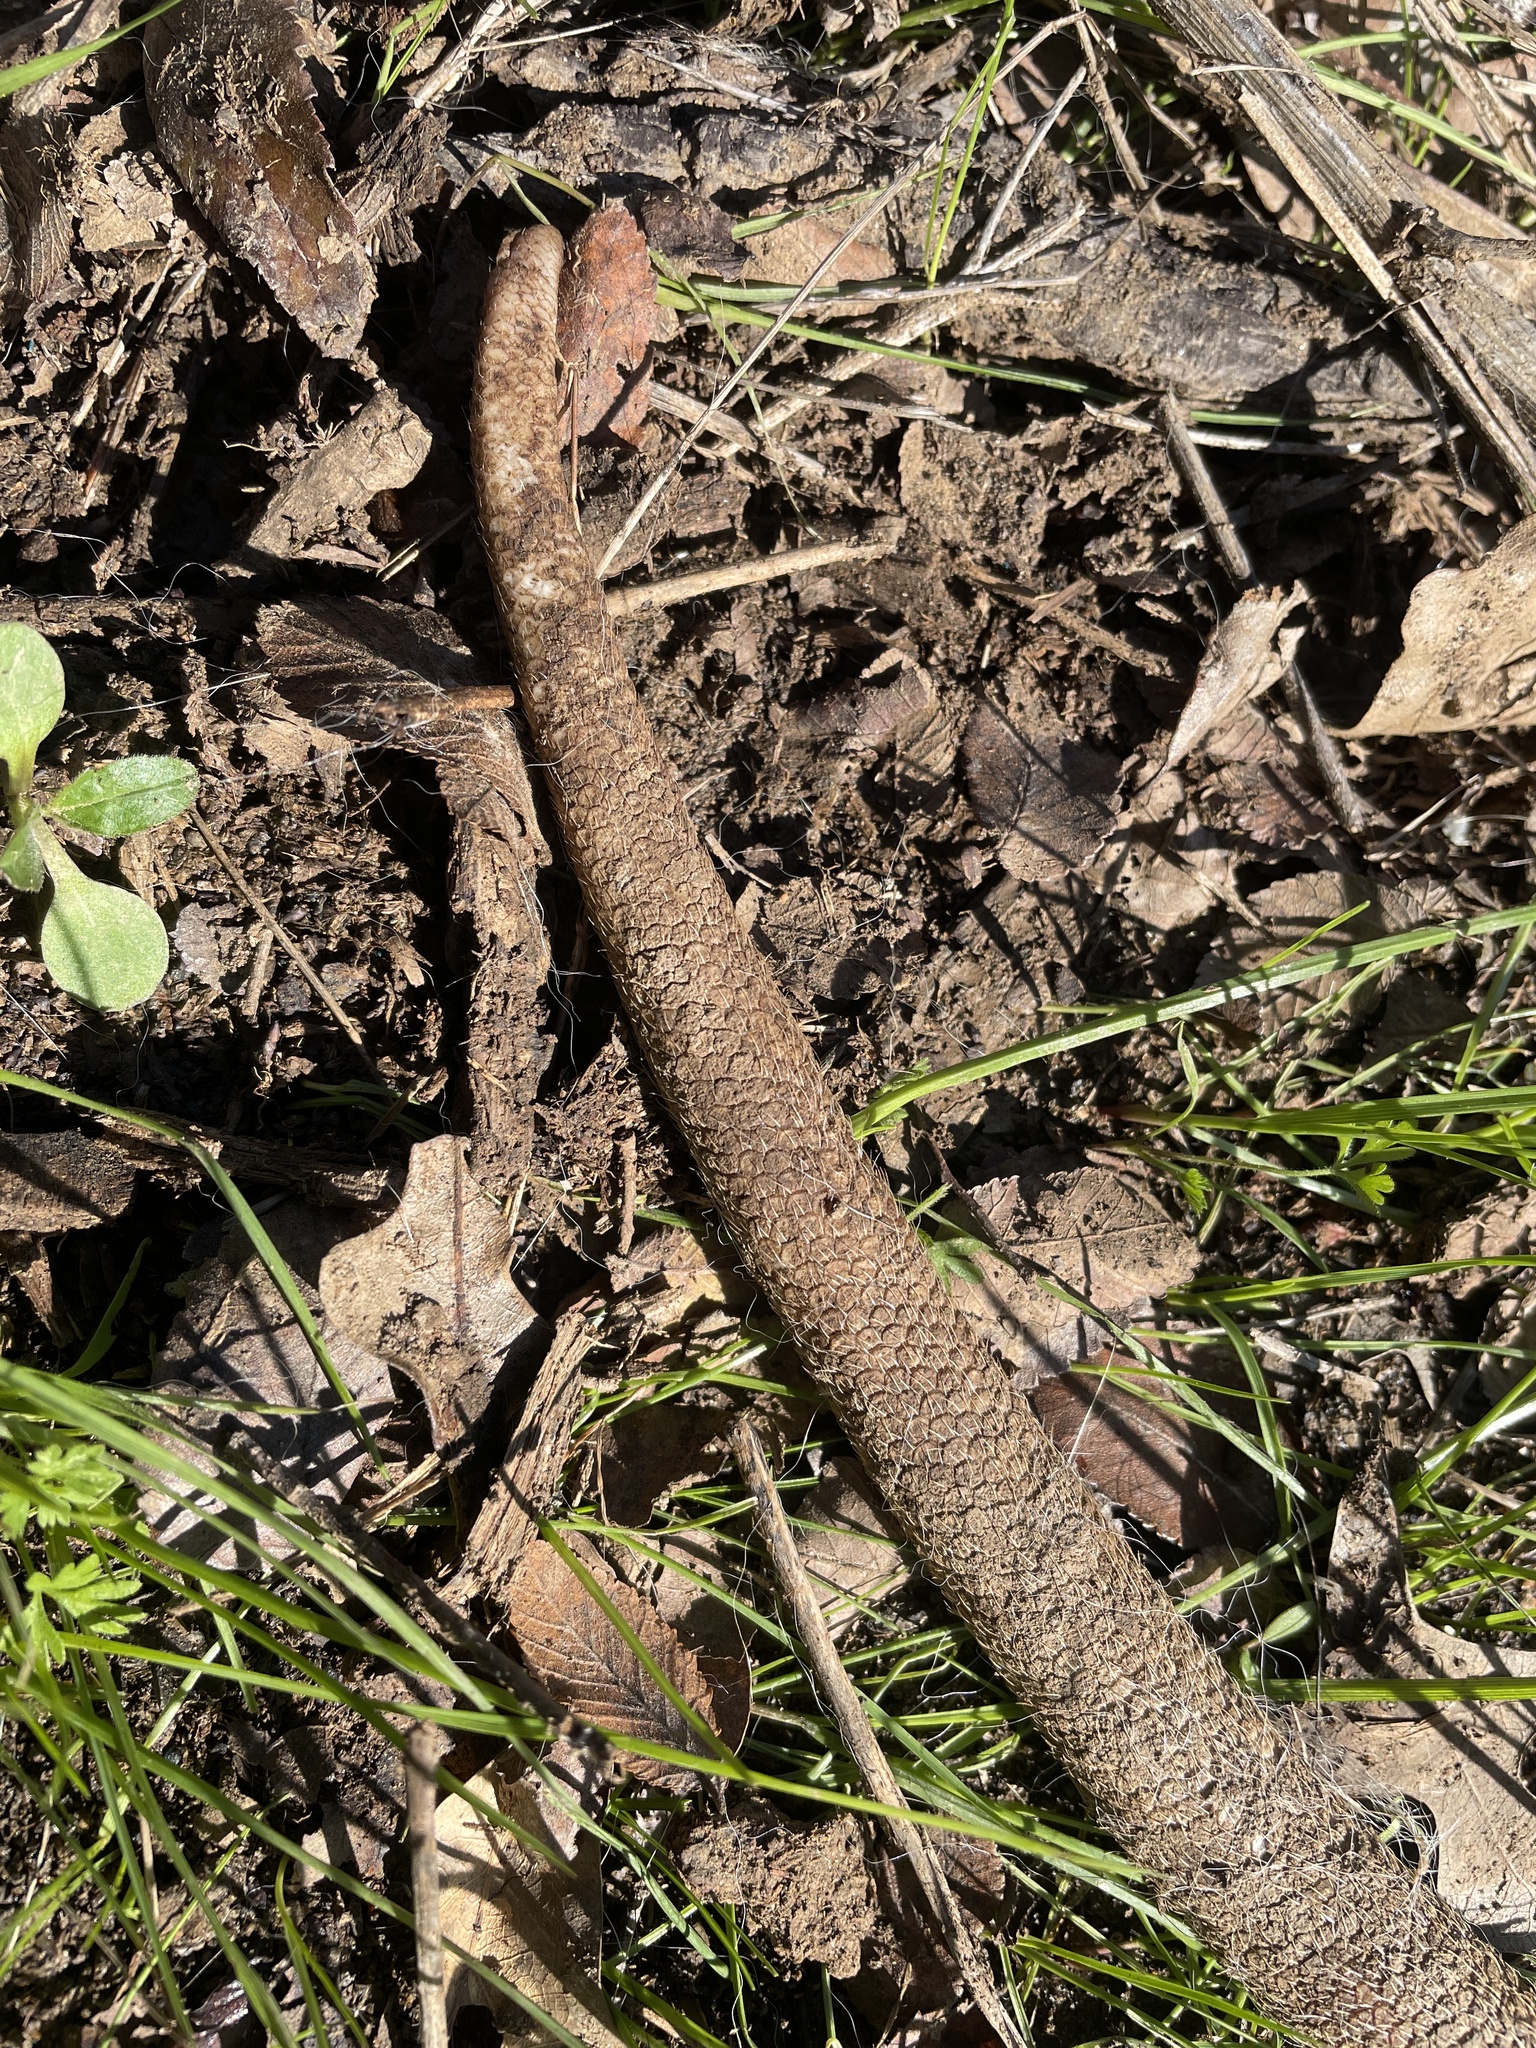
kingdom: Animalia
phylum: Chordata
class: Mammalia
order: Didelphimorphia
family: Didelphidae
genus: Didelphis
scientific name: Didelphis virginiana
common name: Virginia opossum
